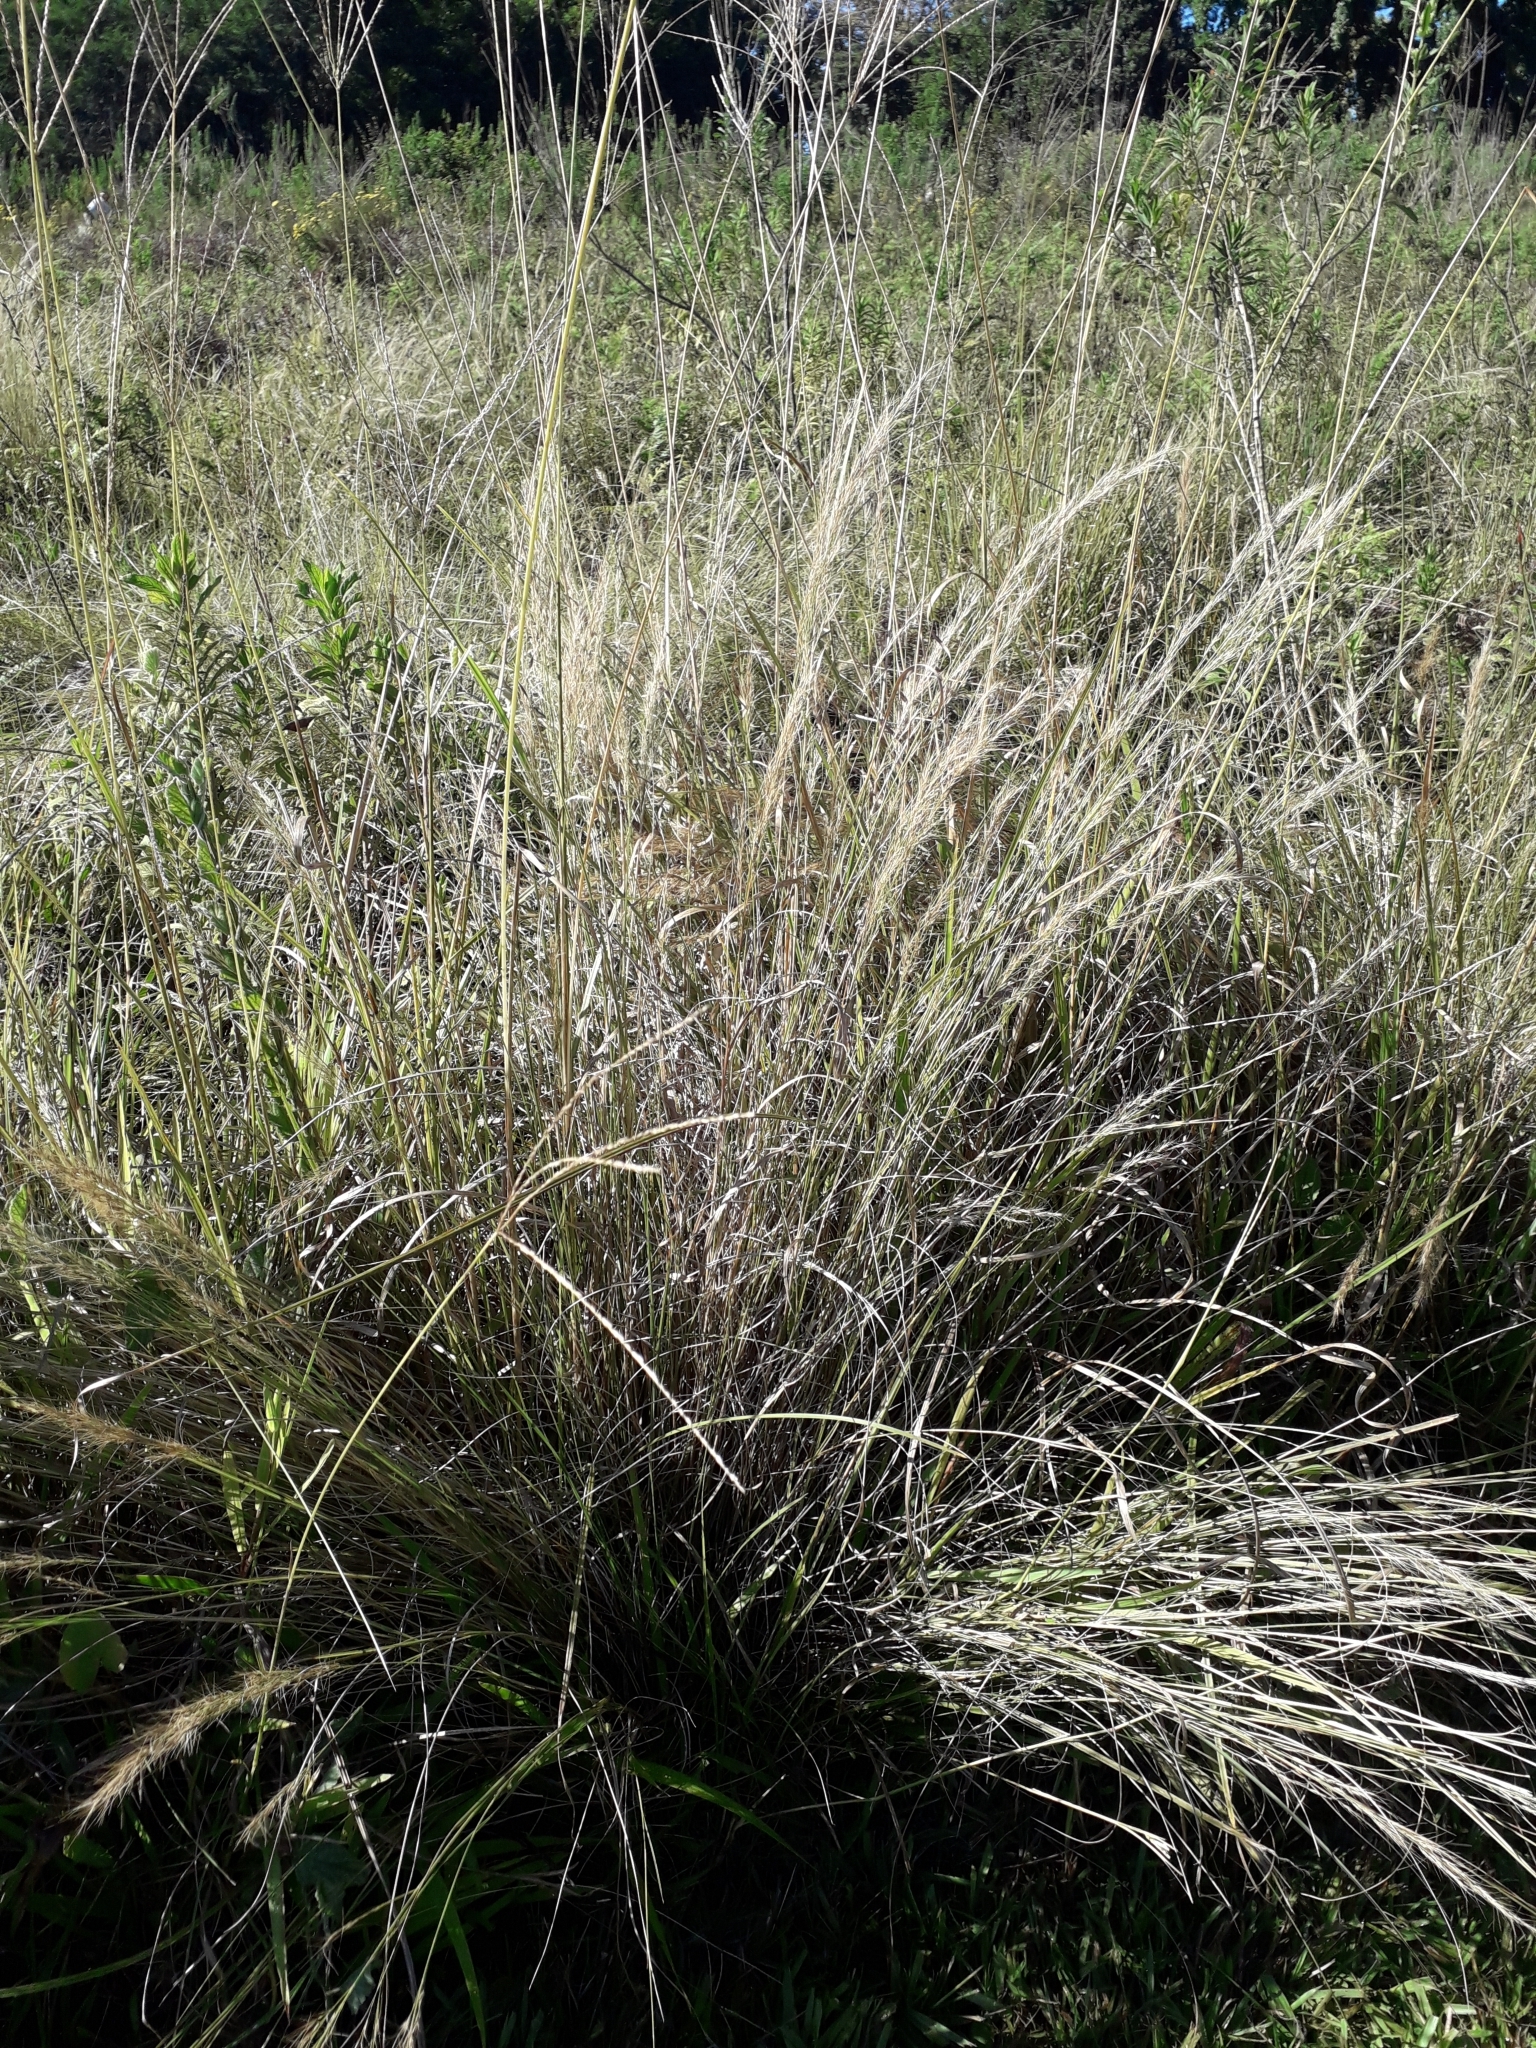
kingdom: Plantae
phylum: Tracheophyta
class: Liliopsida
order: Poales
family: Poaceae
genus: Aristida
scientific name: Aristida junciformis
